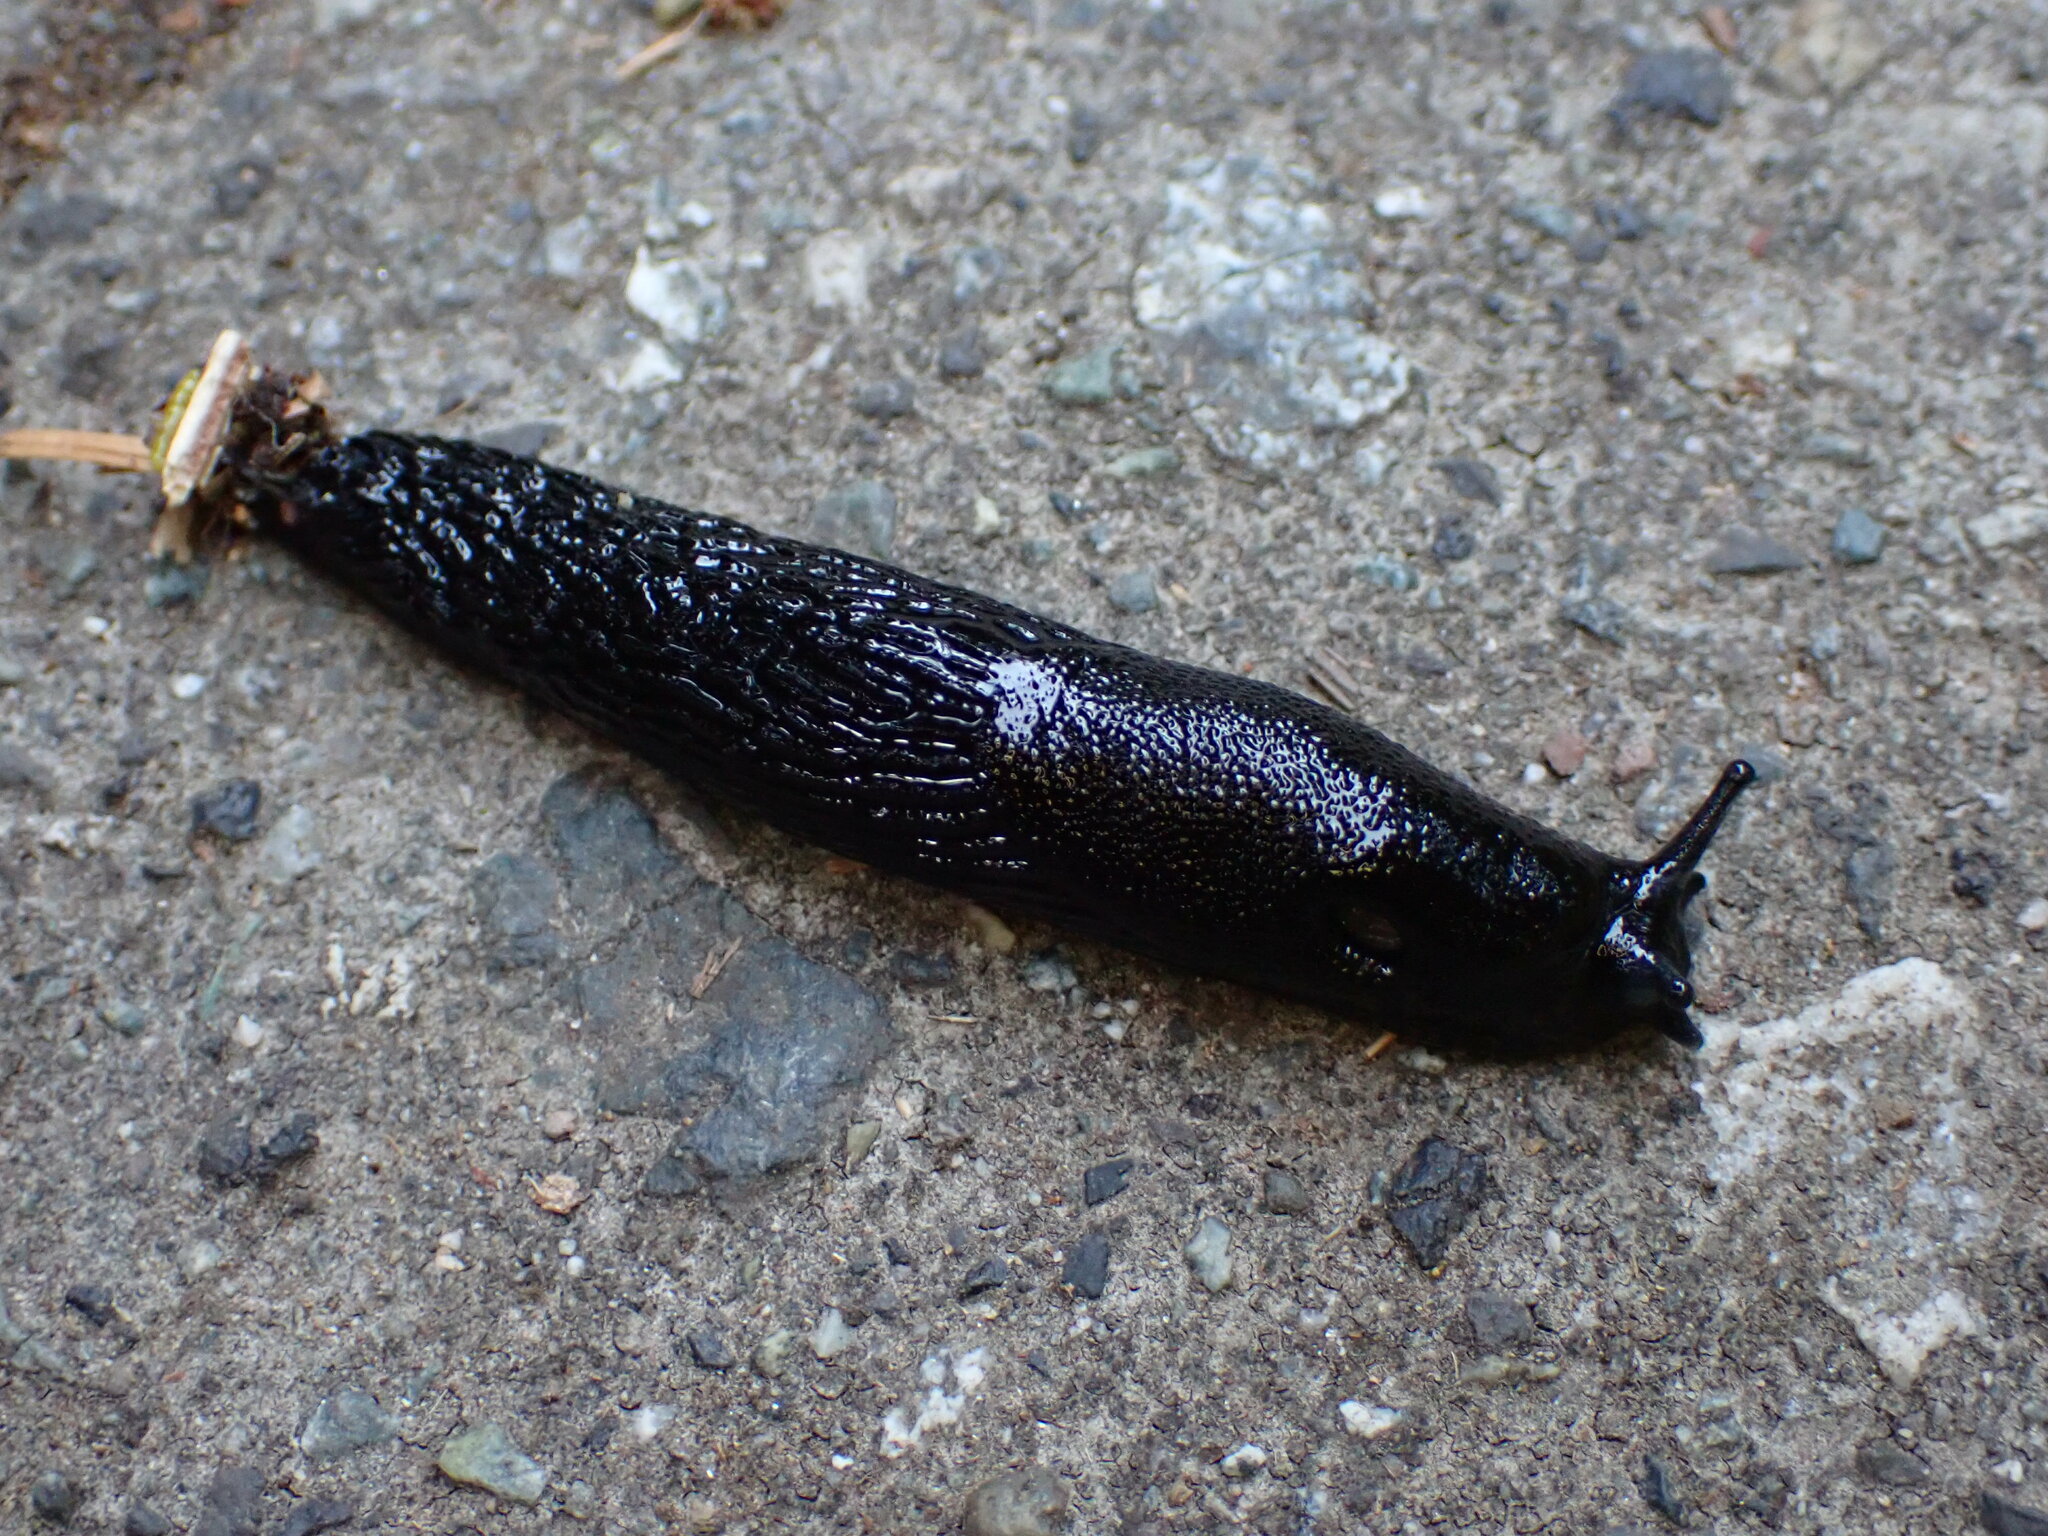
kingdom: Animalia
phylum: Mollusca
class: Gastropoda
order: Stylommatophora
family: Arionidae
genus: Arion
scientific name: Arion
